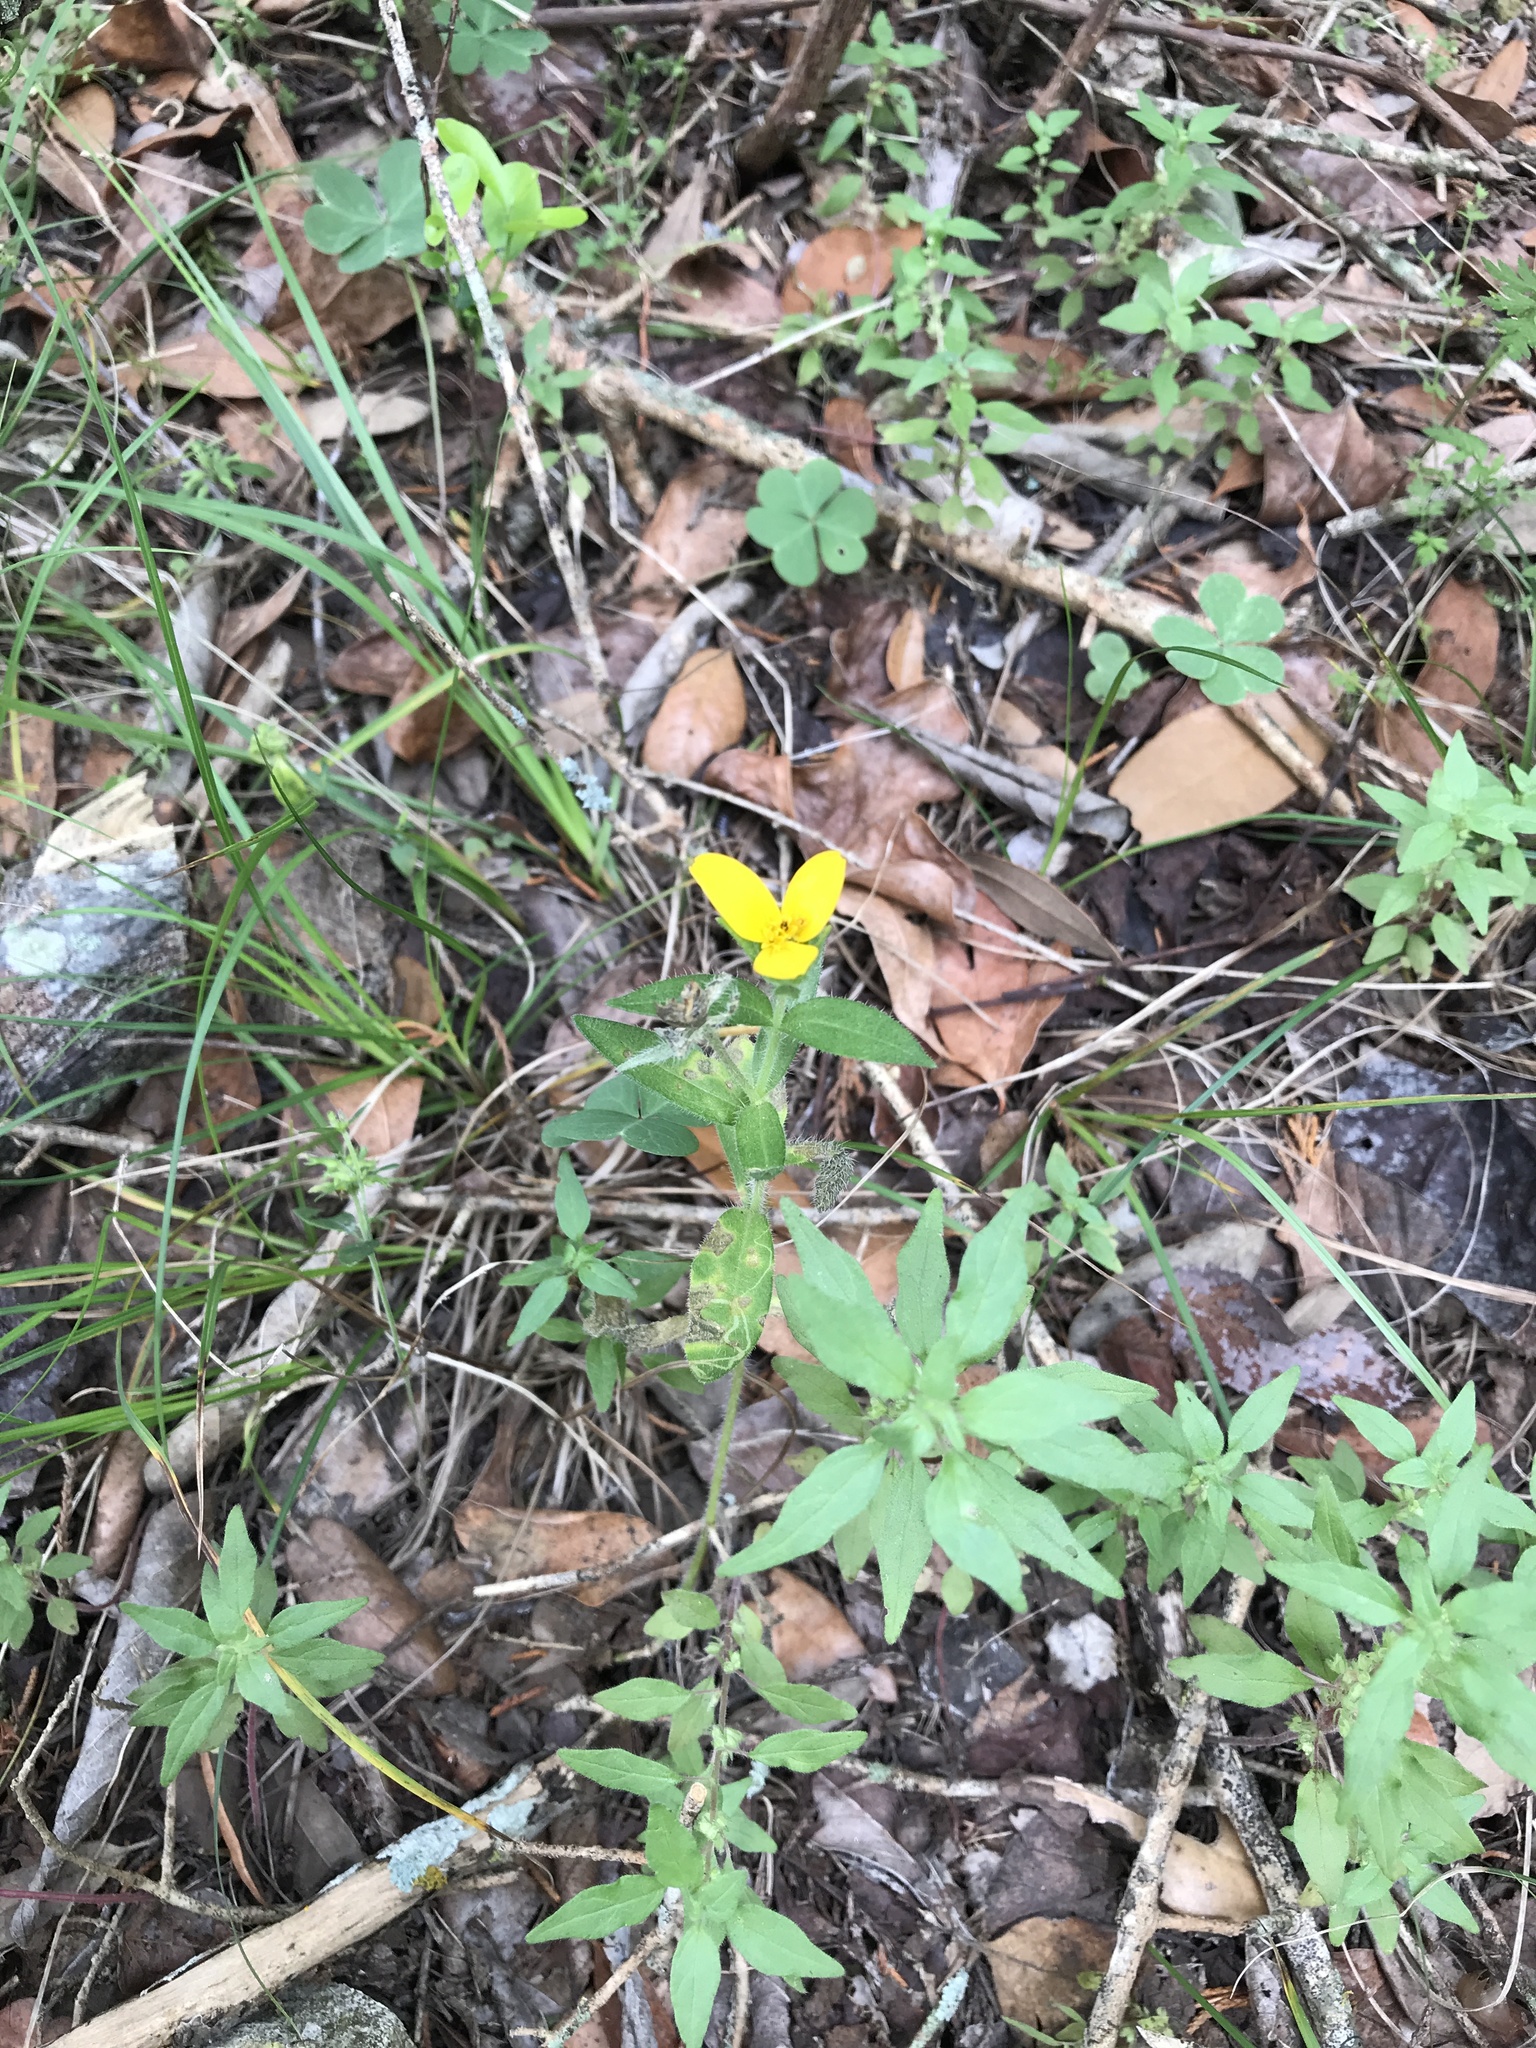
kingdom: Plantae
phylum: Tracheophyta
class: Magnoliopsida
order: Asterales
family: Asteraceae
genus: Lindheimera
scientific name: Lindheimera texana
